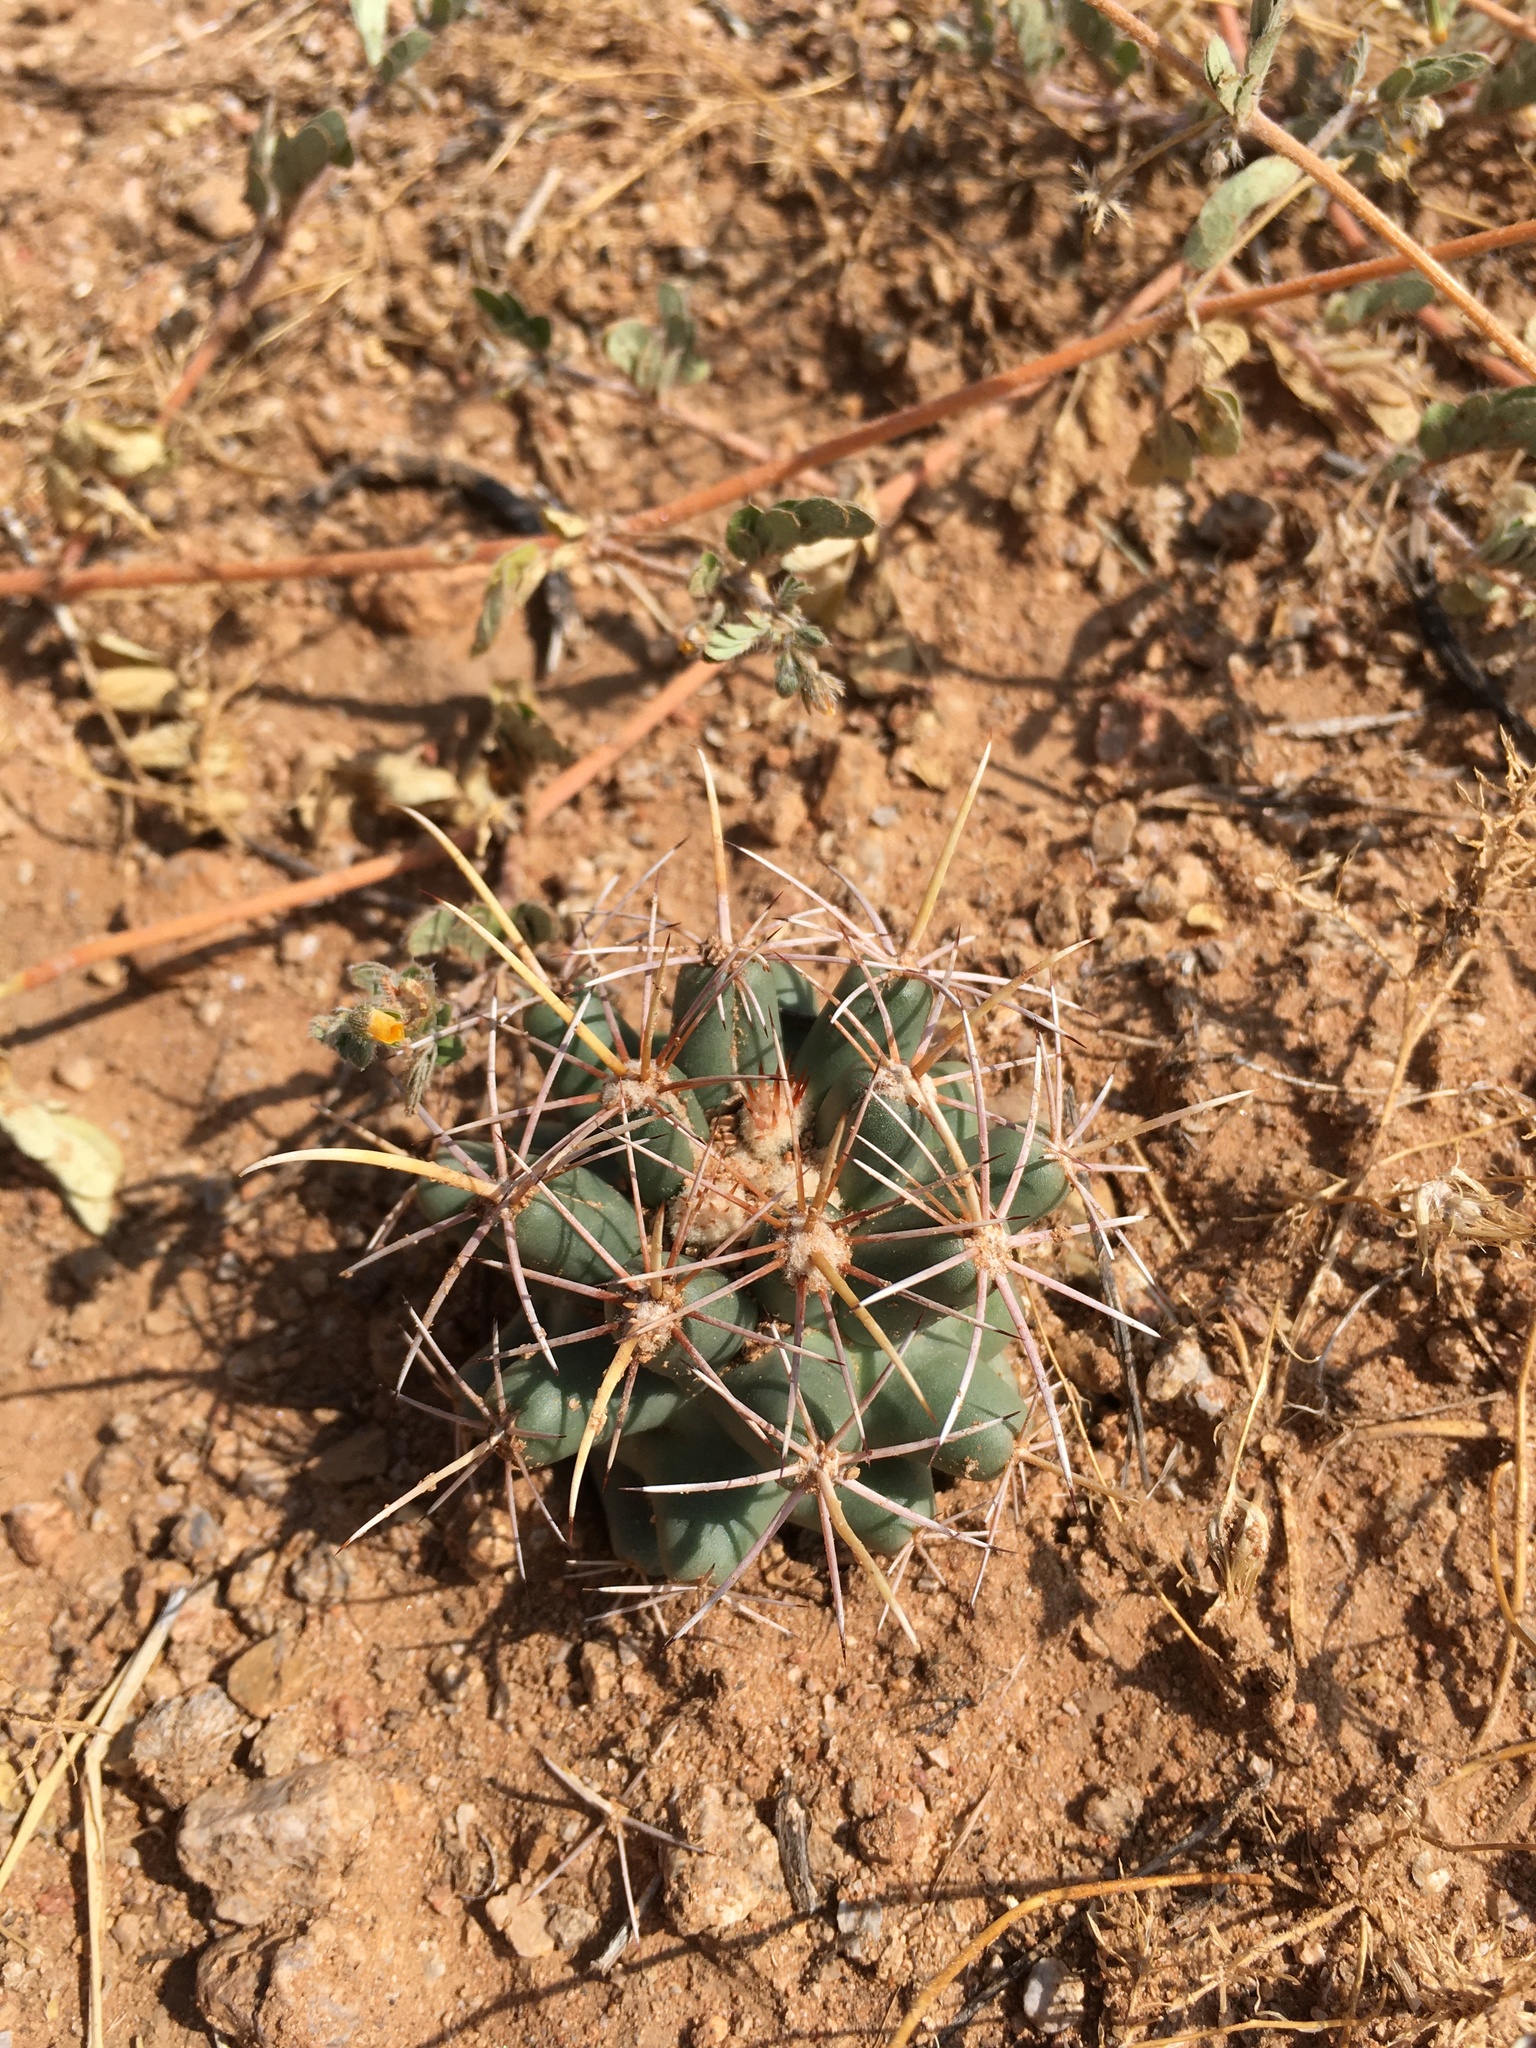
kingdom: Plantae
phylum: Tracheophyta
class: Magnoliopsida
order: Caryophyllales
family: Cactaceae
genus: Coryphantha
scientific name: Coryphantha robustispina
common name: Pima pineapple cactus
